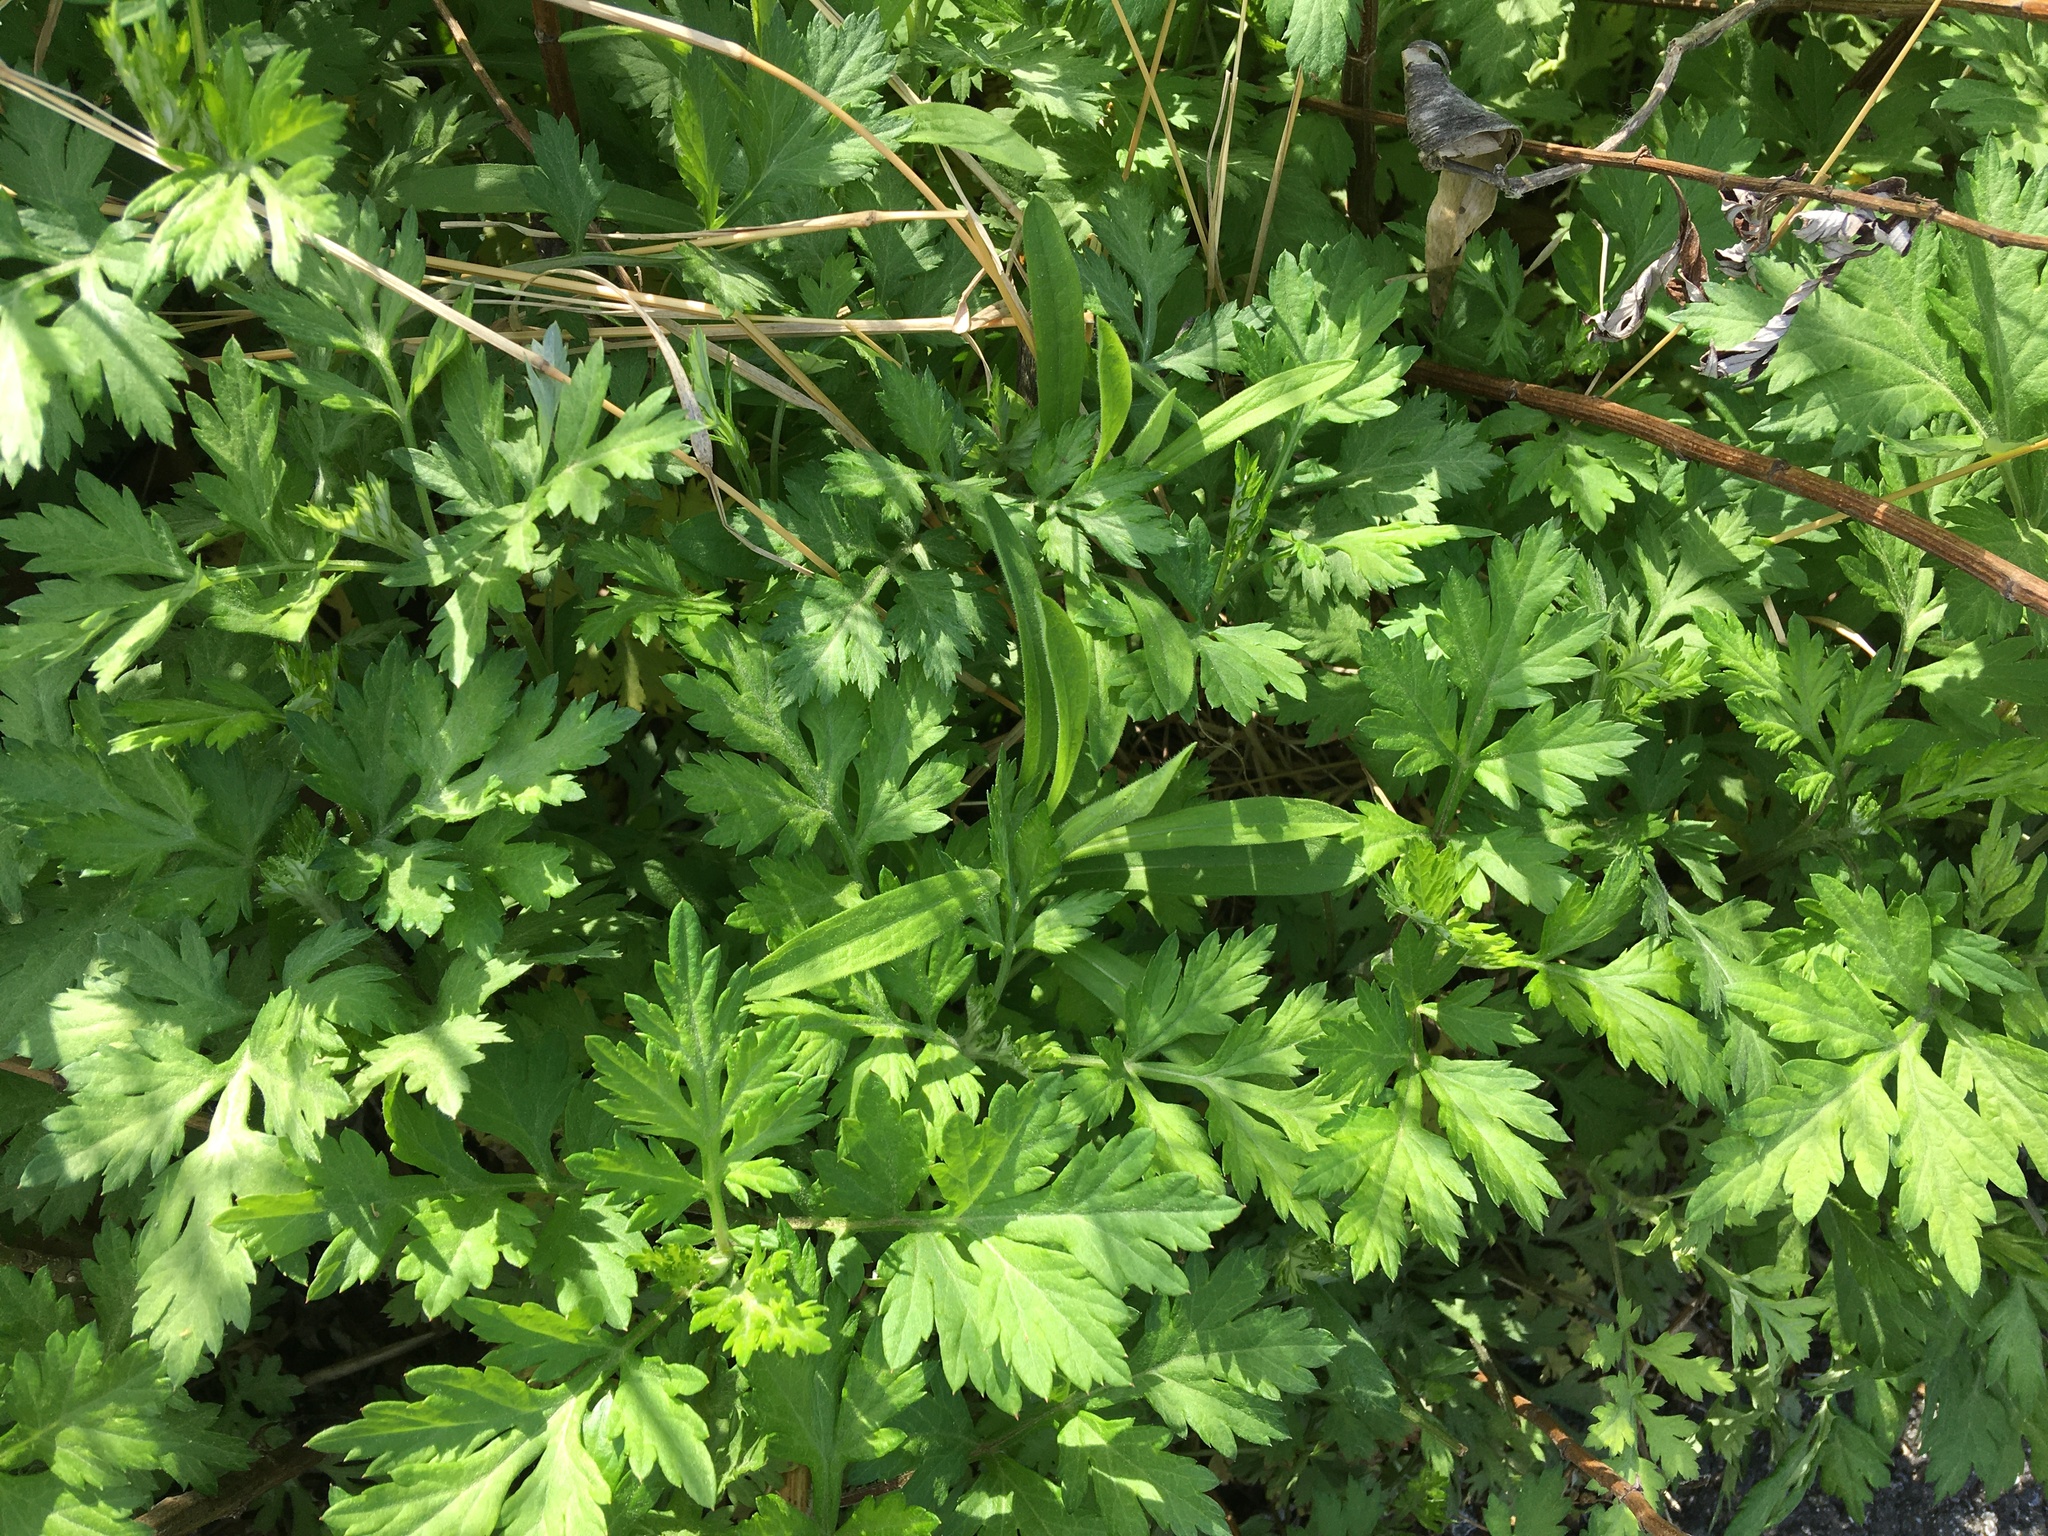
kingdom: Plantae
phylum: Tracheophyta
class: Magnoliopsida
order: Asterales
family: Asteraceae
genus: Artemisia
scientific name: Artemisia vulgaris
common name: Mugwort
